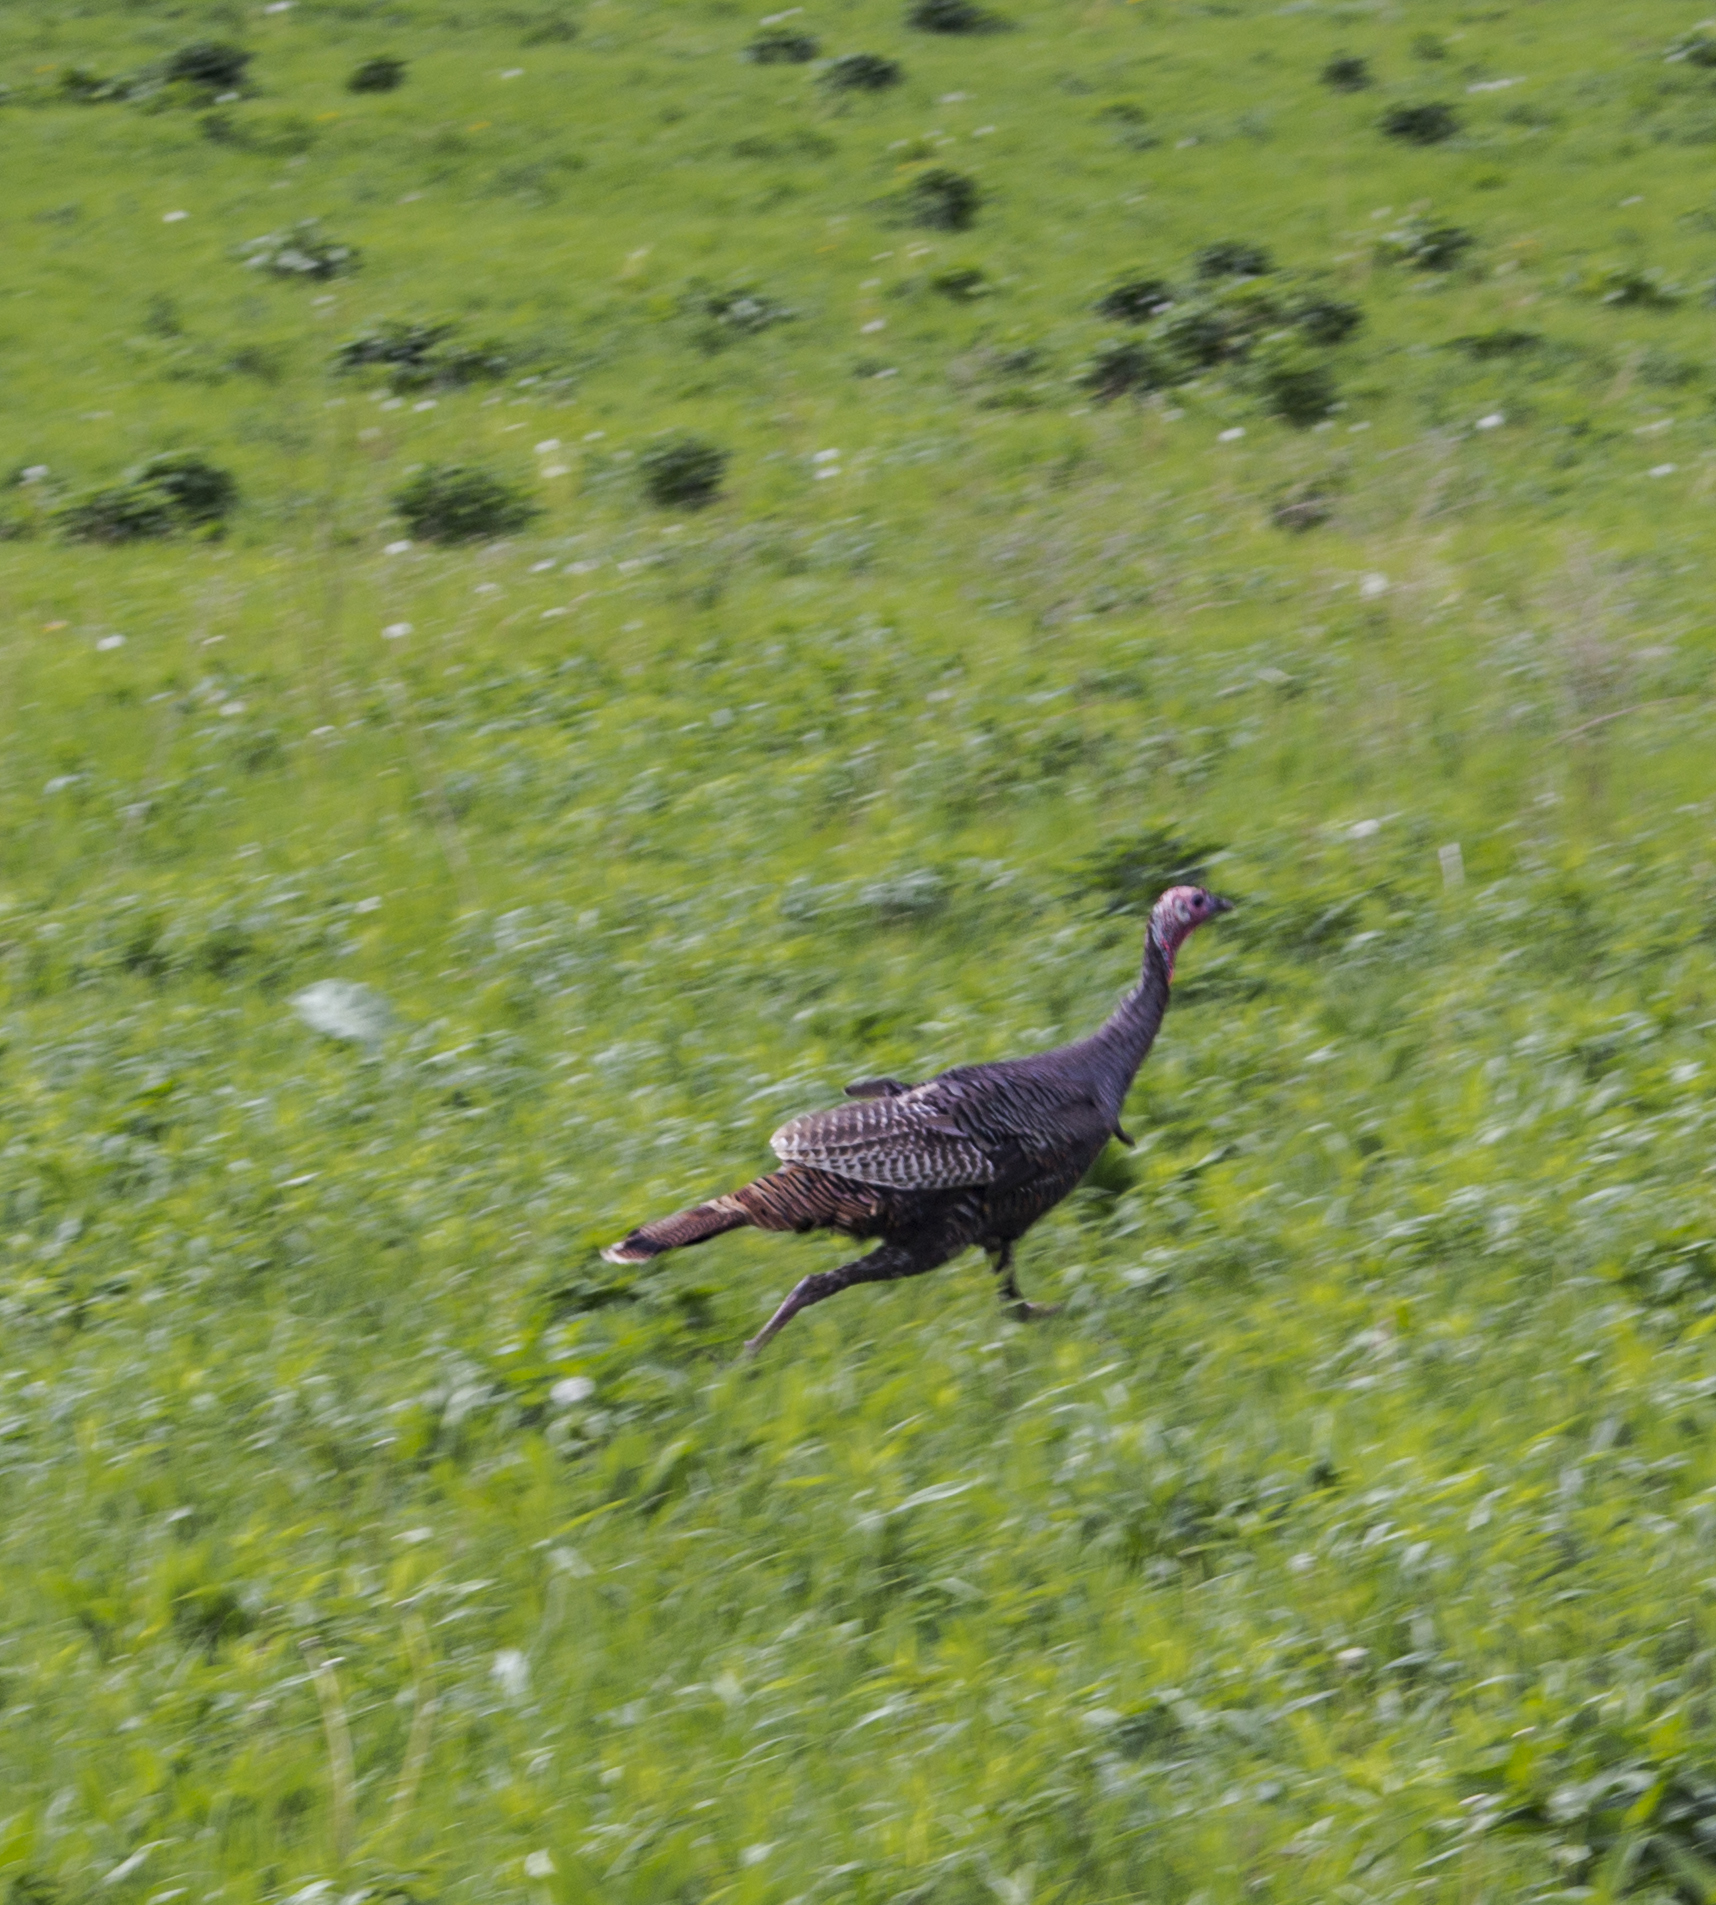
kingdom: Animalia
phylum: Chordata
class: Aves
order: Galliformes
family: Phasianidae
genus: Meleagris
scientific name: Meleagris gallopavo
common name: Wild turkey
